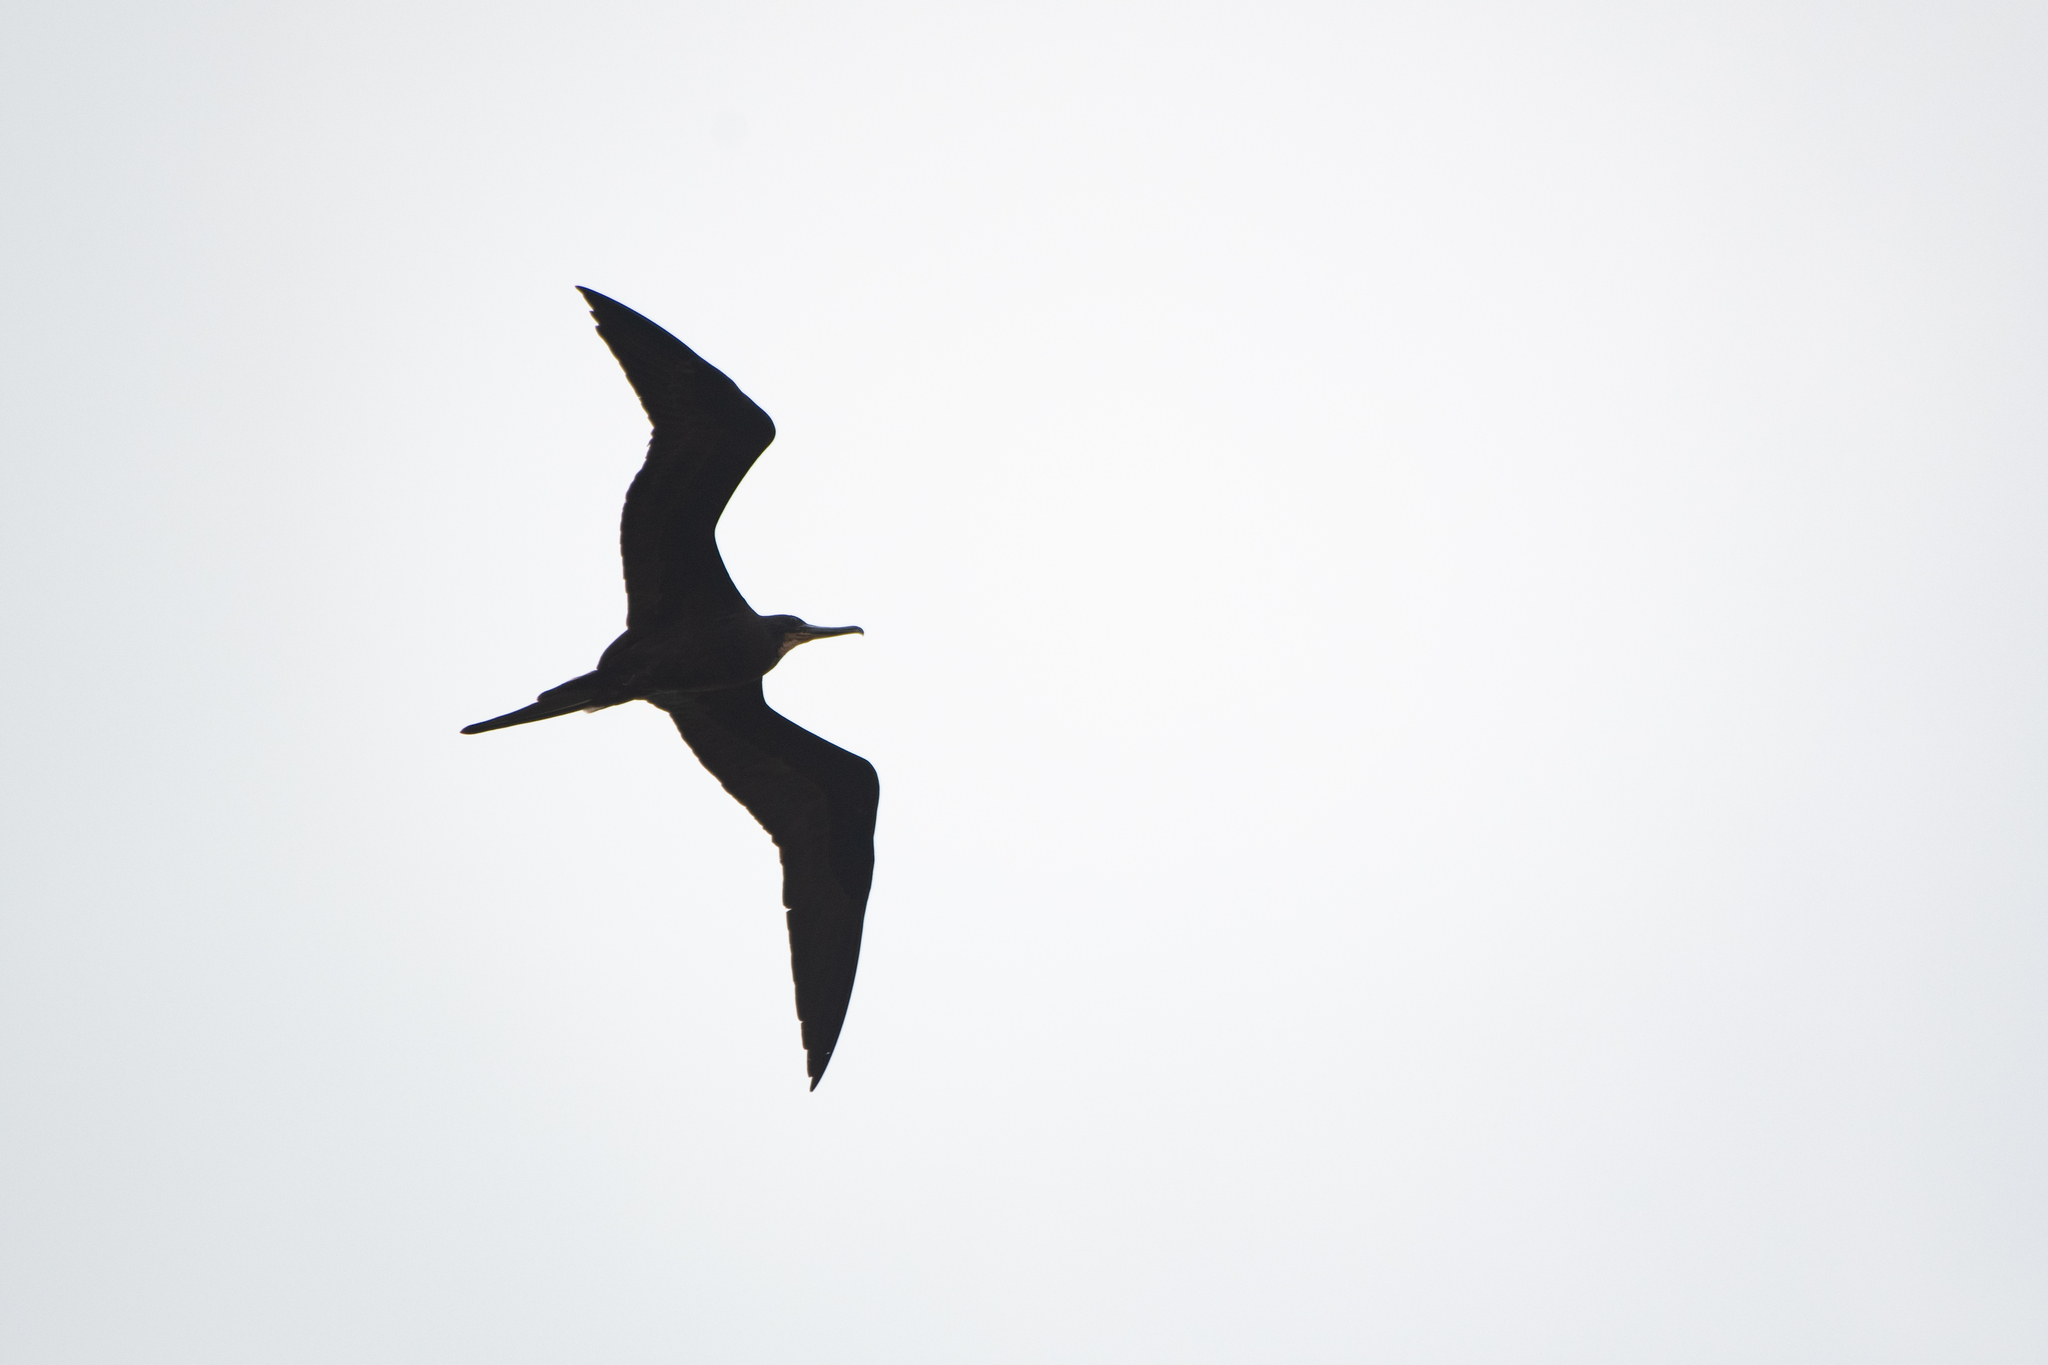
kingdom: Animalia
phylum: Chordata
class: Aves
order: Suliformes
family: Fregatidae
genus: Fregata
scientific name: Fregata magnificens
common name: Magnificent frigatebird
